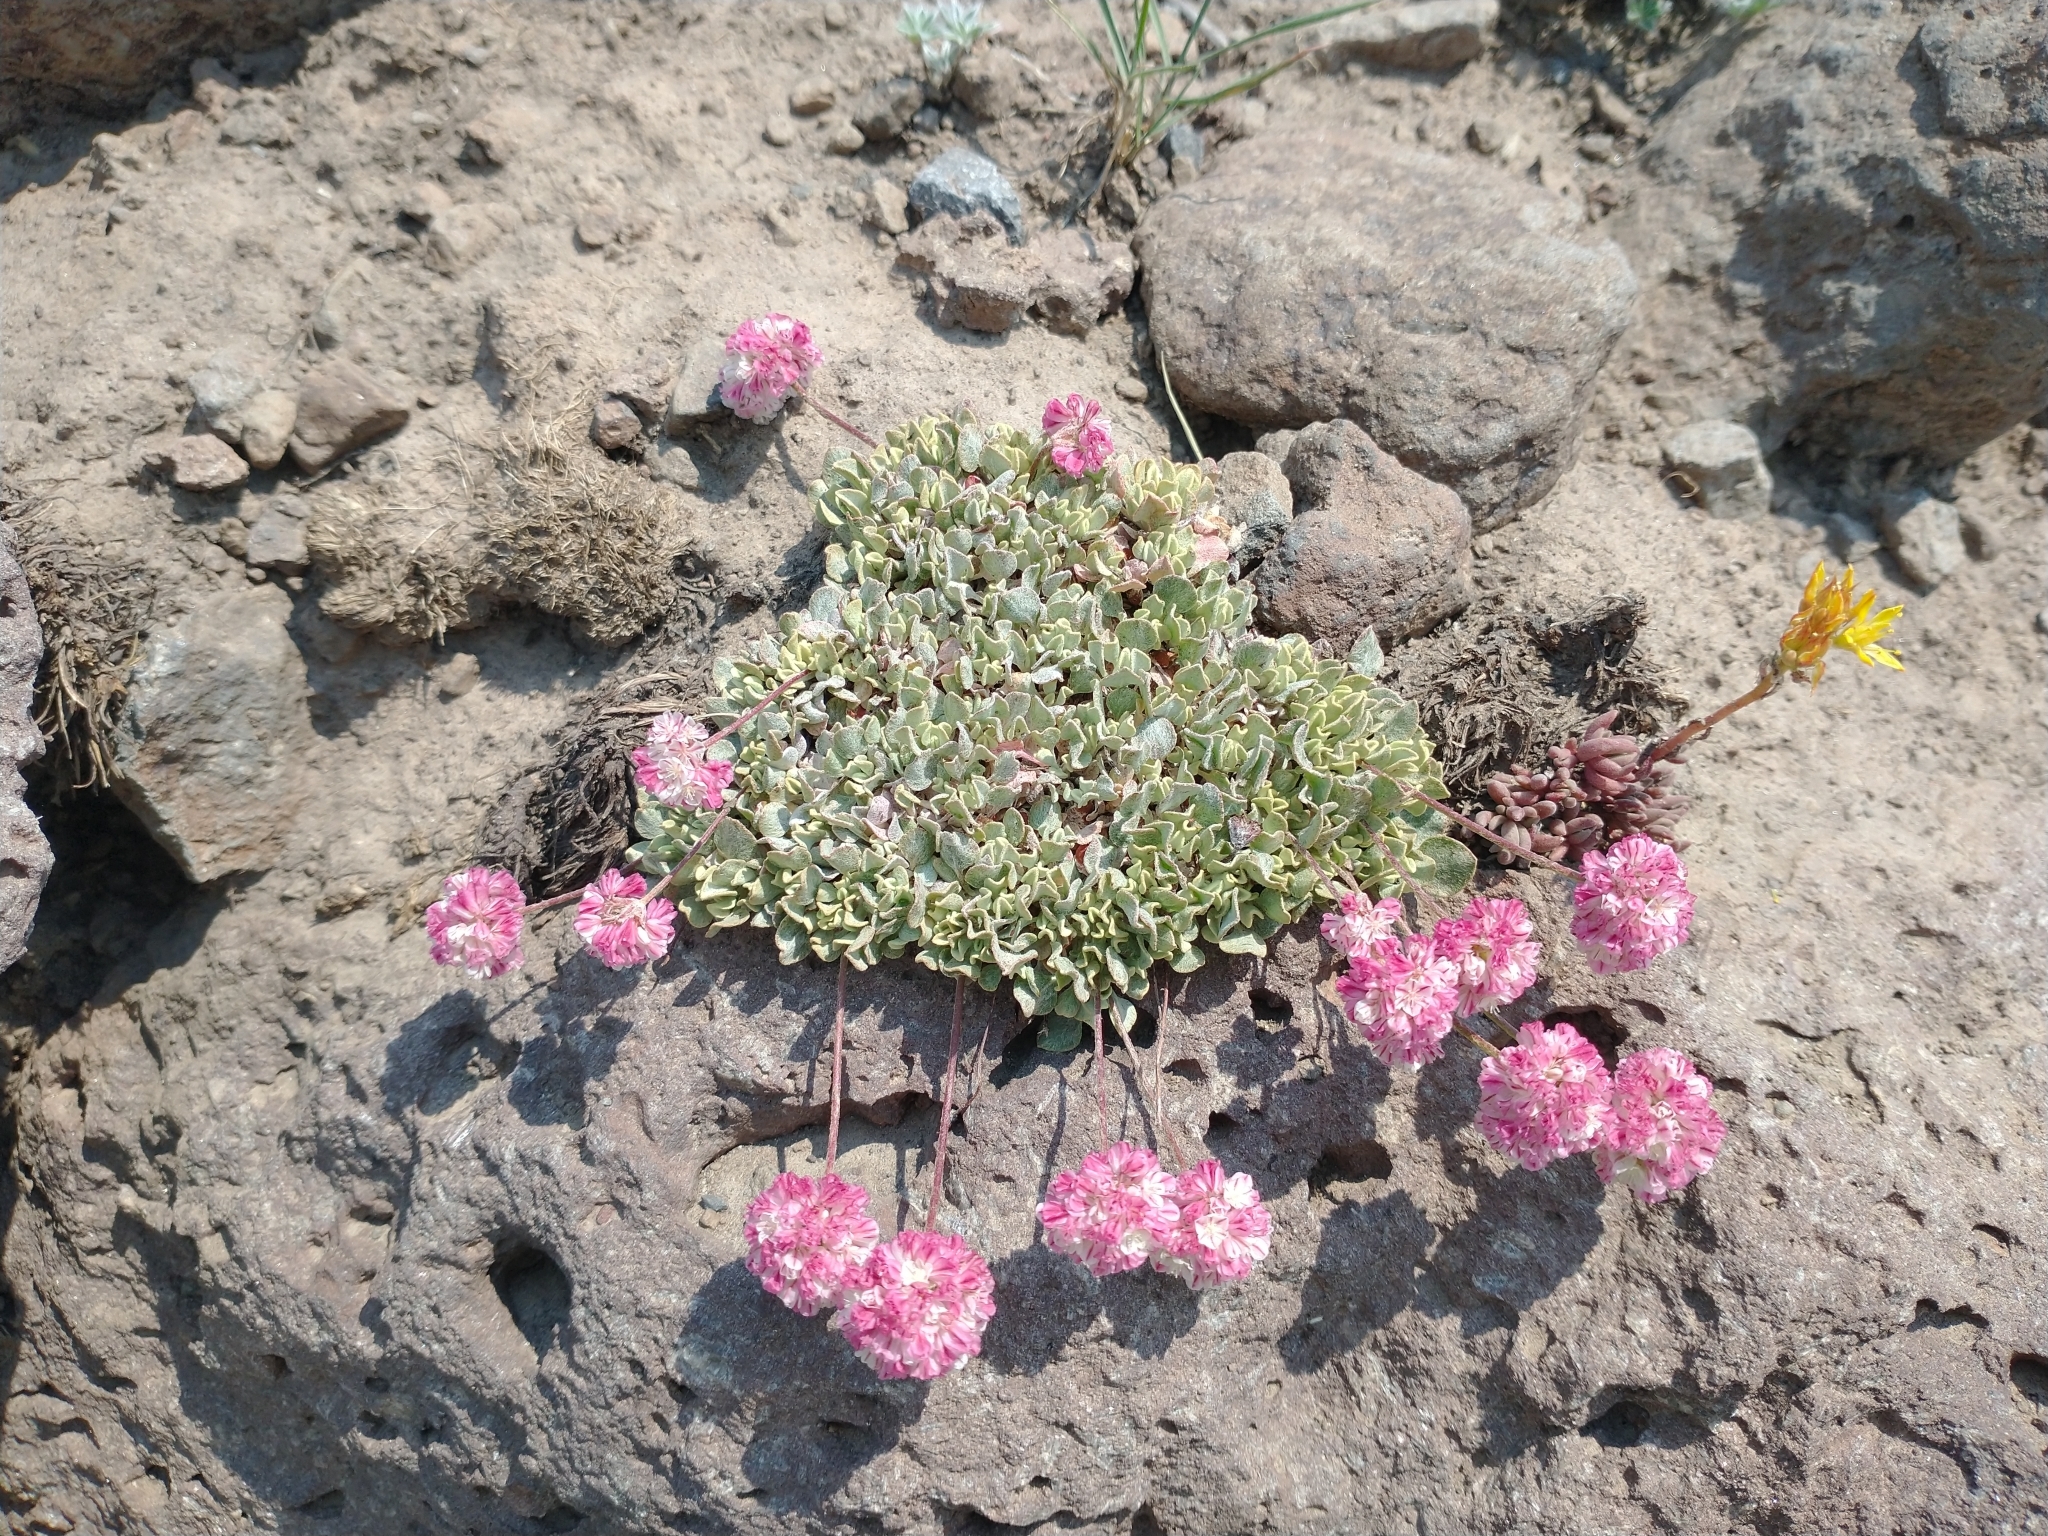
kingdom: Plantae
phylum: Tracheophyta
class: Magnoliopsida
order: Caryophyllales
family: Polygonaceae
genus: Eriogonum
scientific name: Eriogonum ovalifolium
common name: Cushion buckwheat
